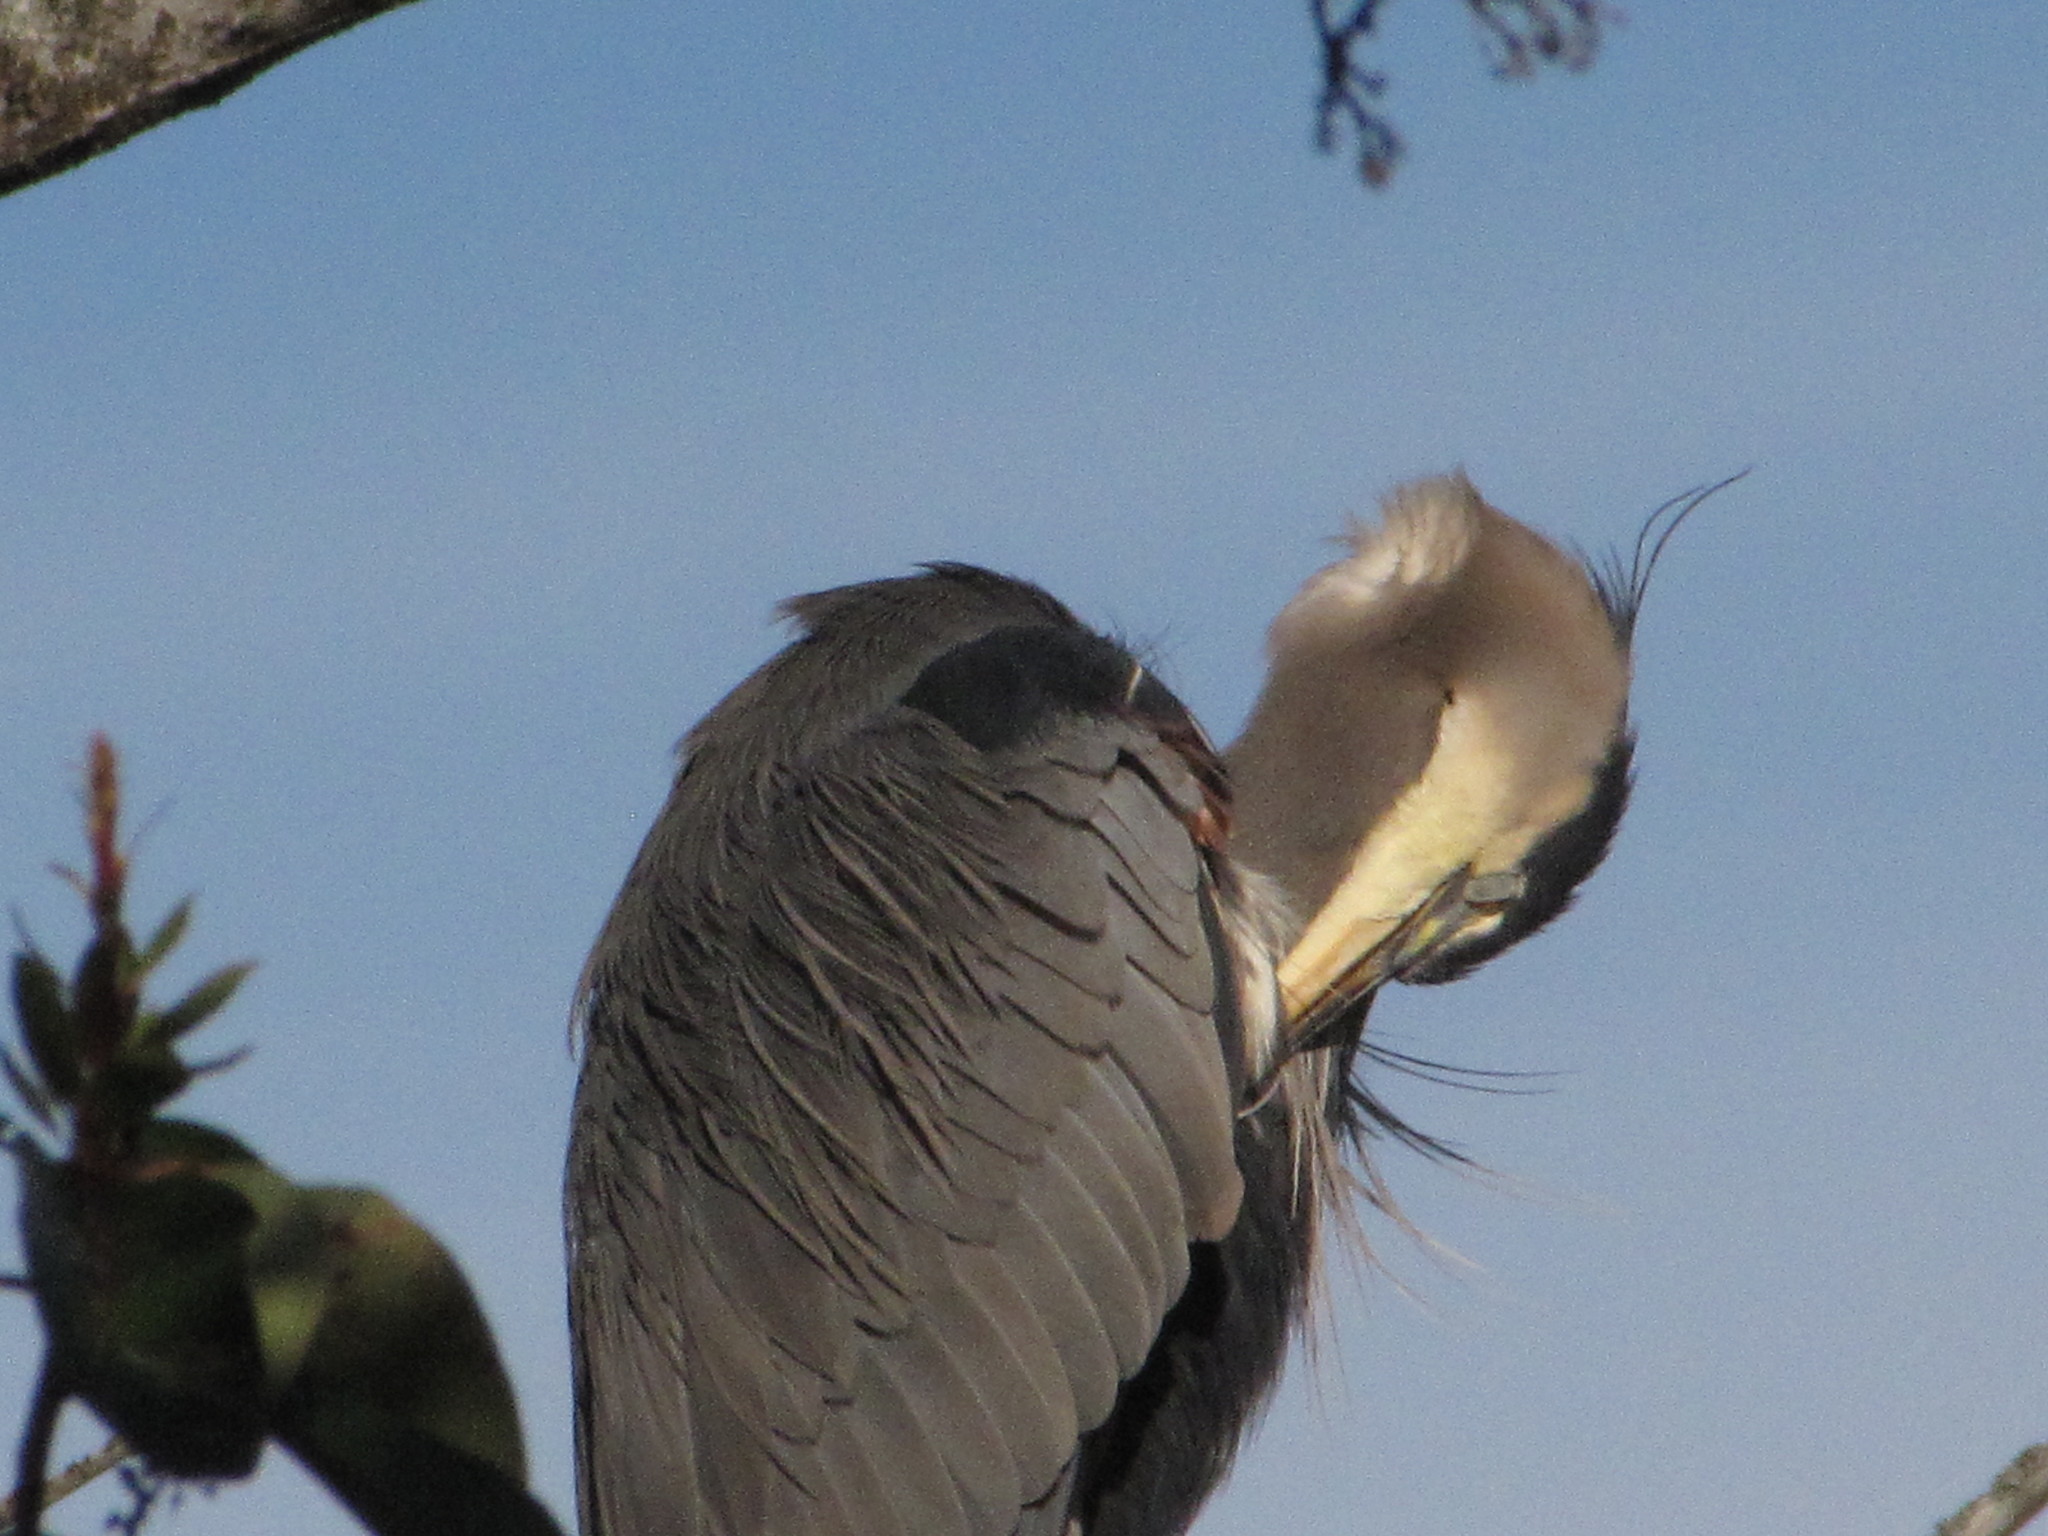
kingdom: Animalia
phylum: Chordata
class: Aves
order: Pelecaniformes
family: Ardeidae
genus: Ardea
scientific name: Ardea herodias
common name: Great blue heron
